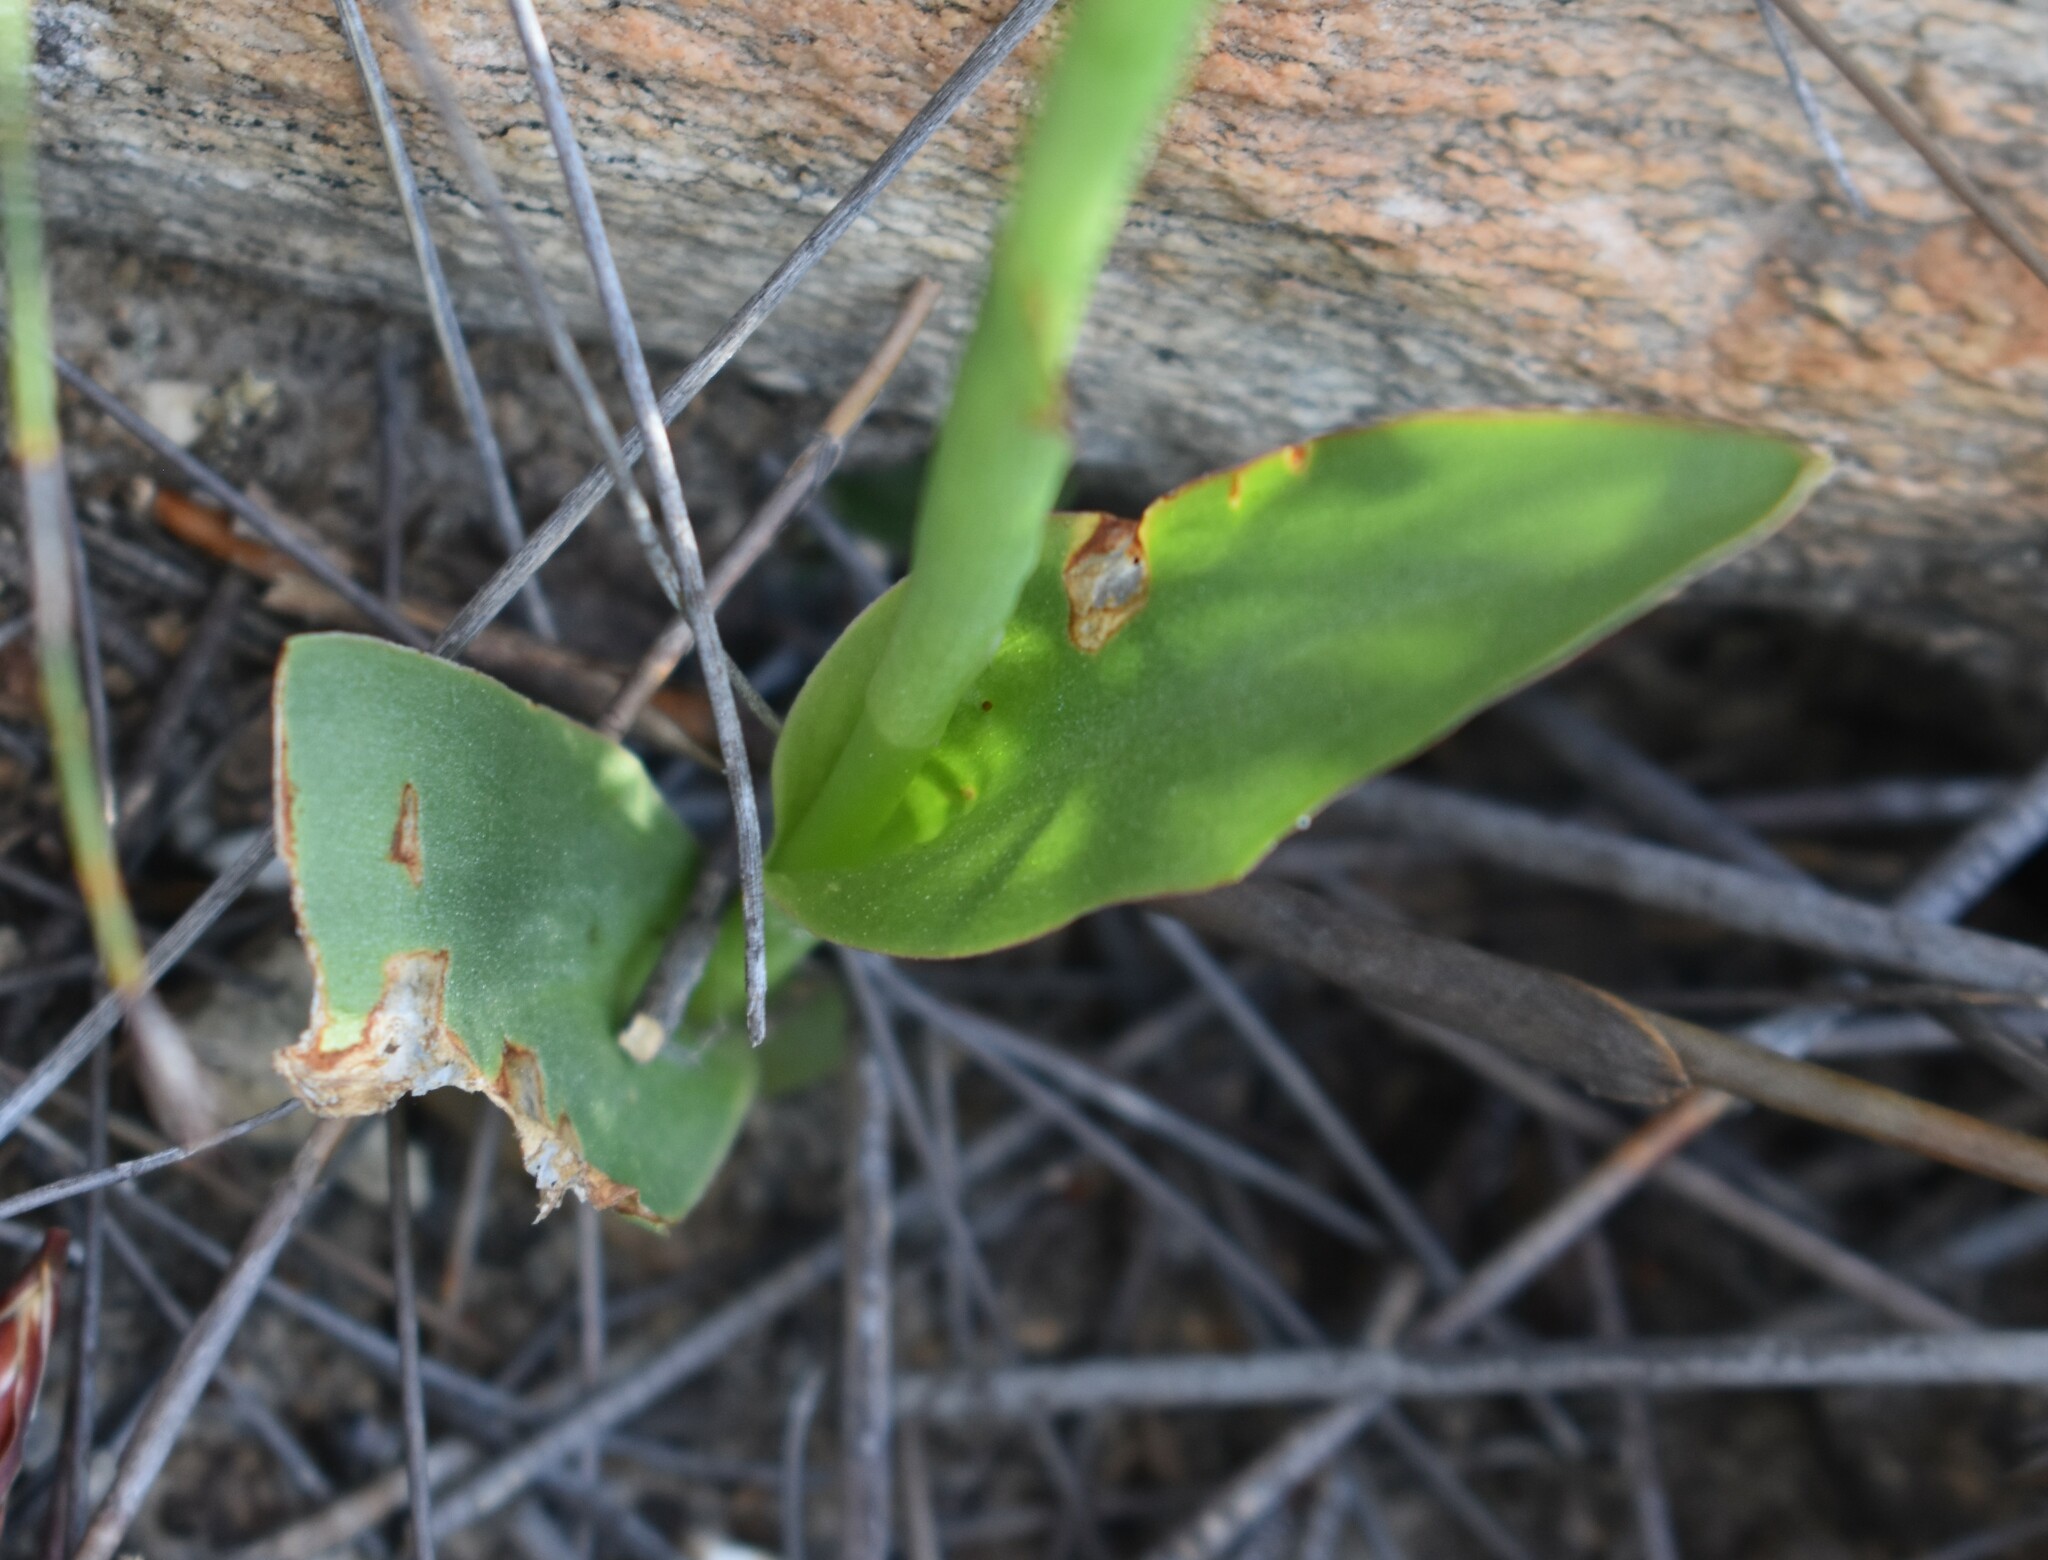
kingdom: Plantae
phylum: Tracheophyta
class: Liliopsida
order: Asparagales
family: Orchidaceae
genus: Disa
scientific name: Disa comosa
